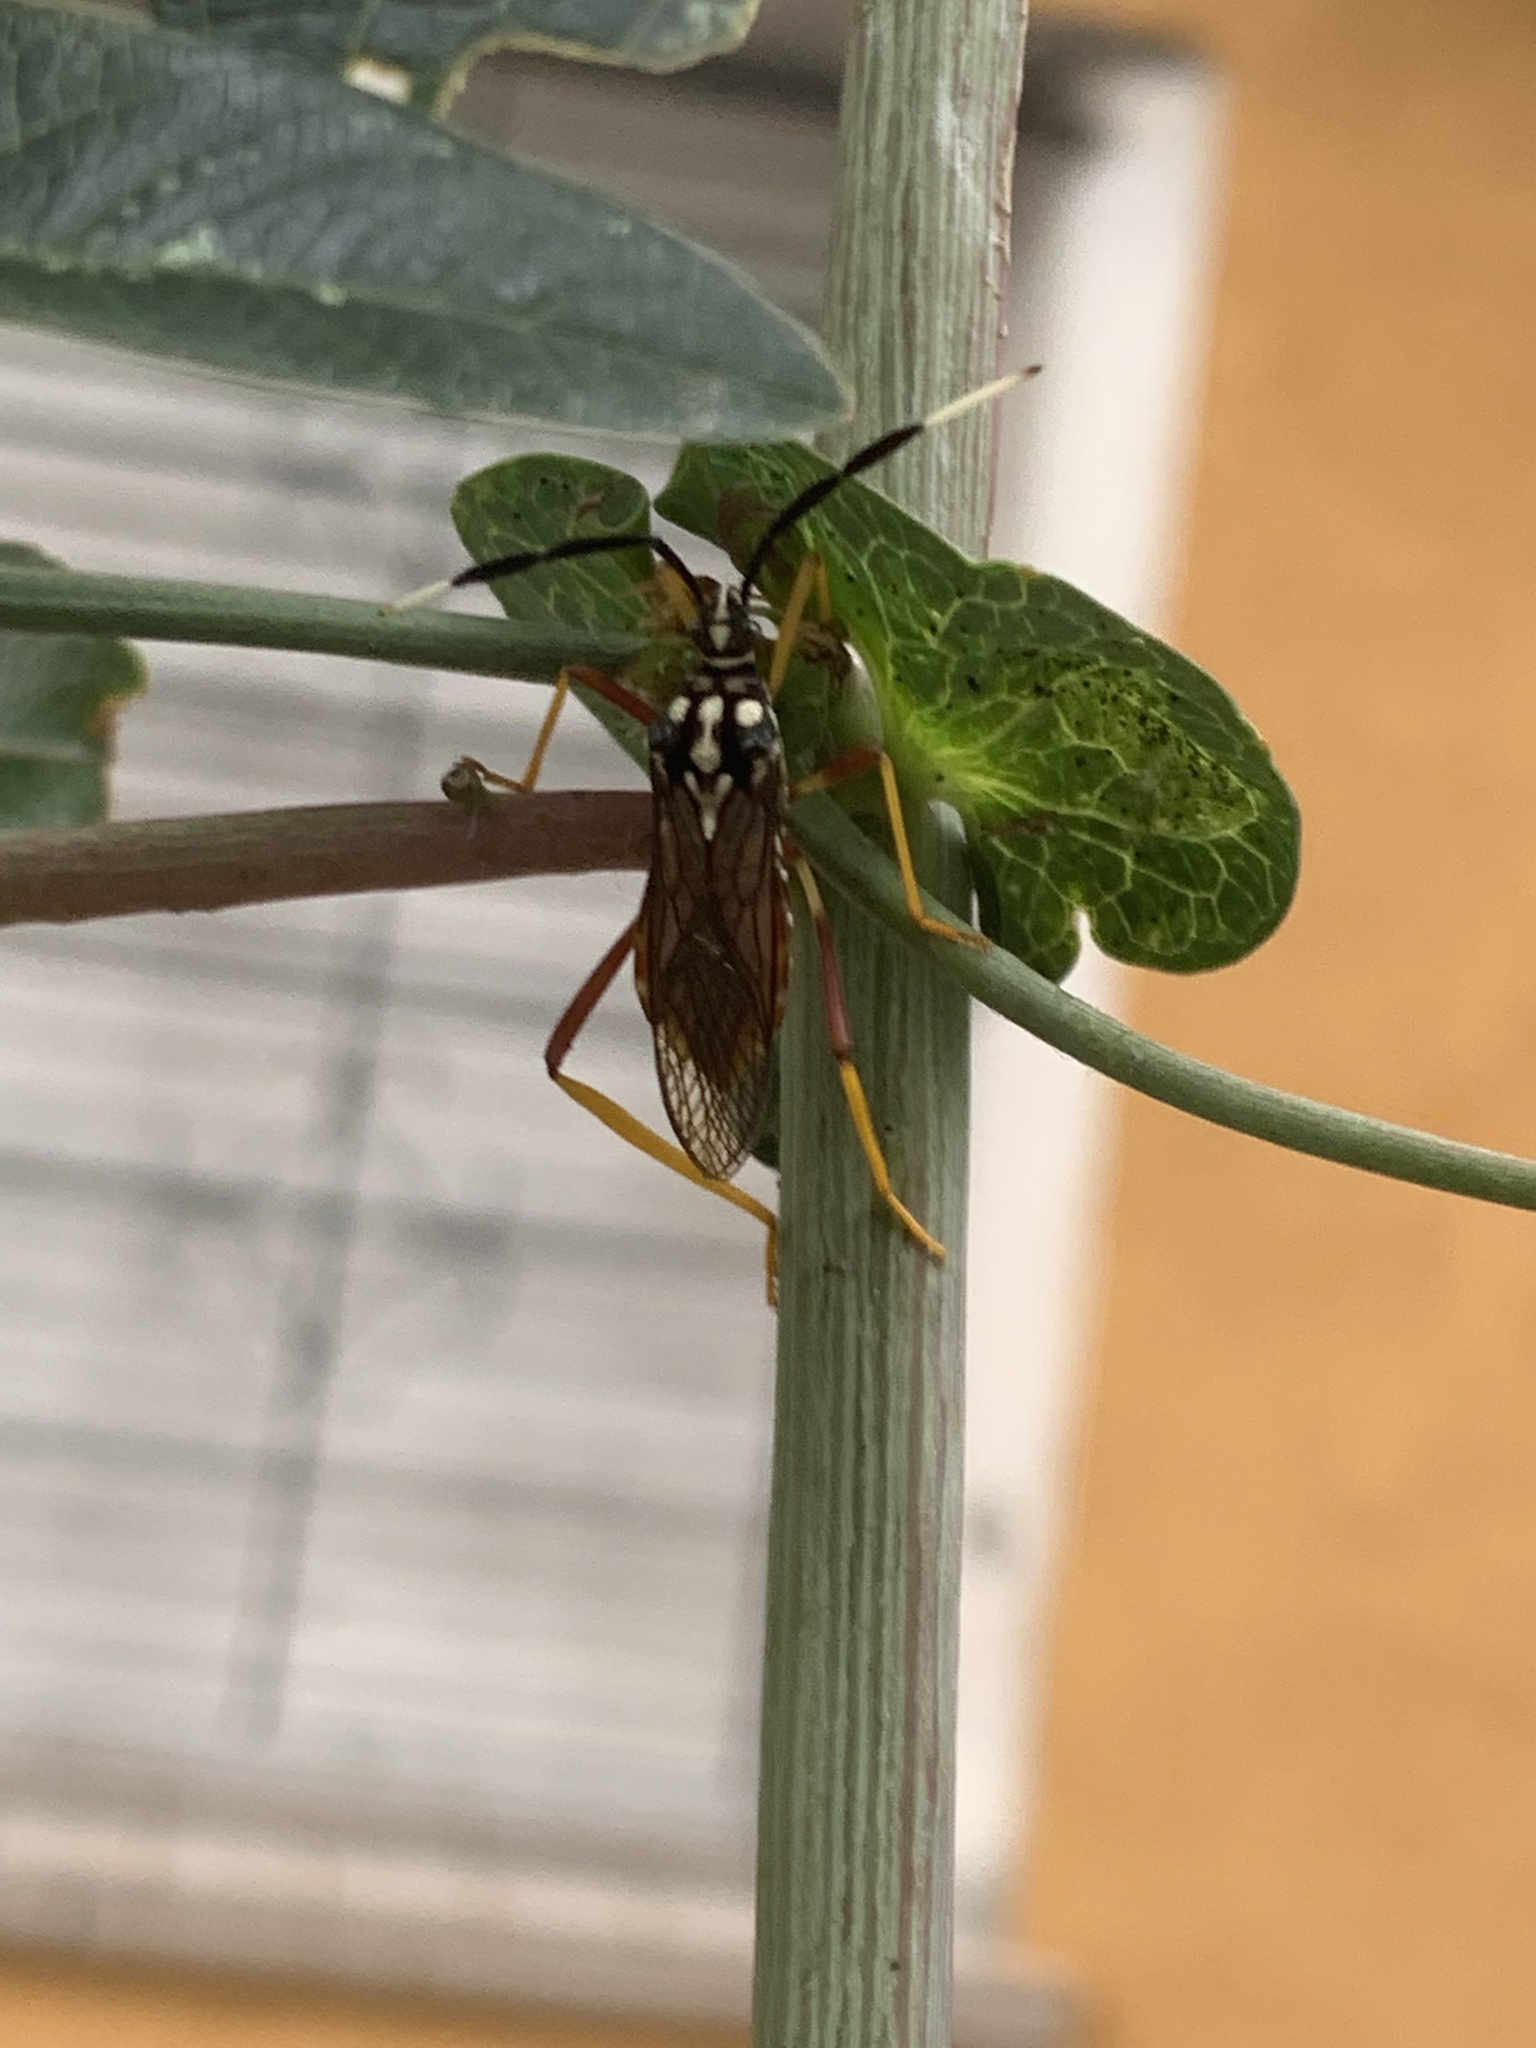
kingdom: Animalia
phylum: Arthropoda
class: Insecta
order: Hemiptera
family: Coreidae
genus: Holhymenia
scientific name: Holhymenia histrio
